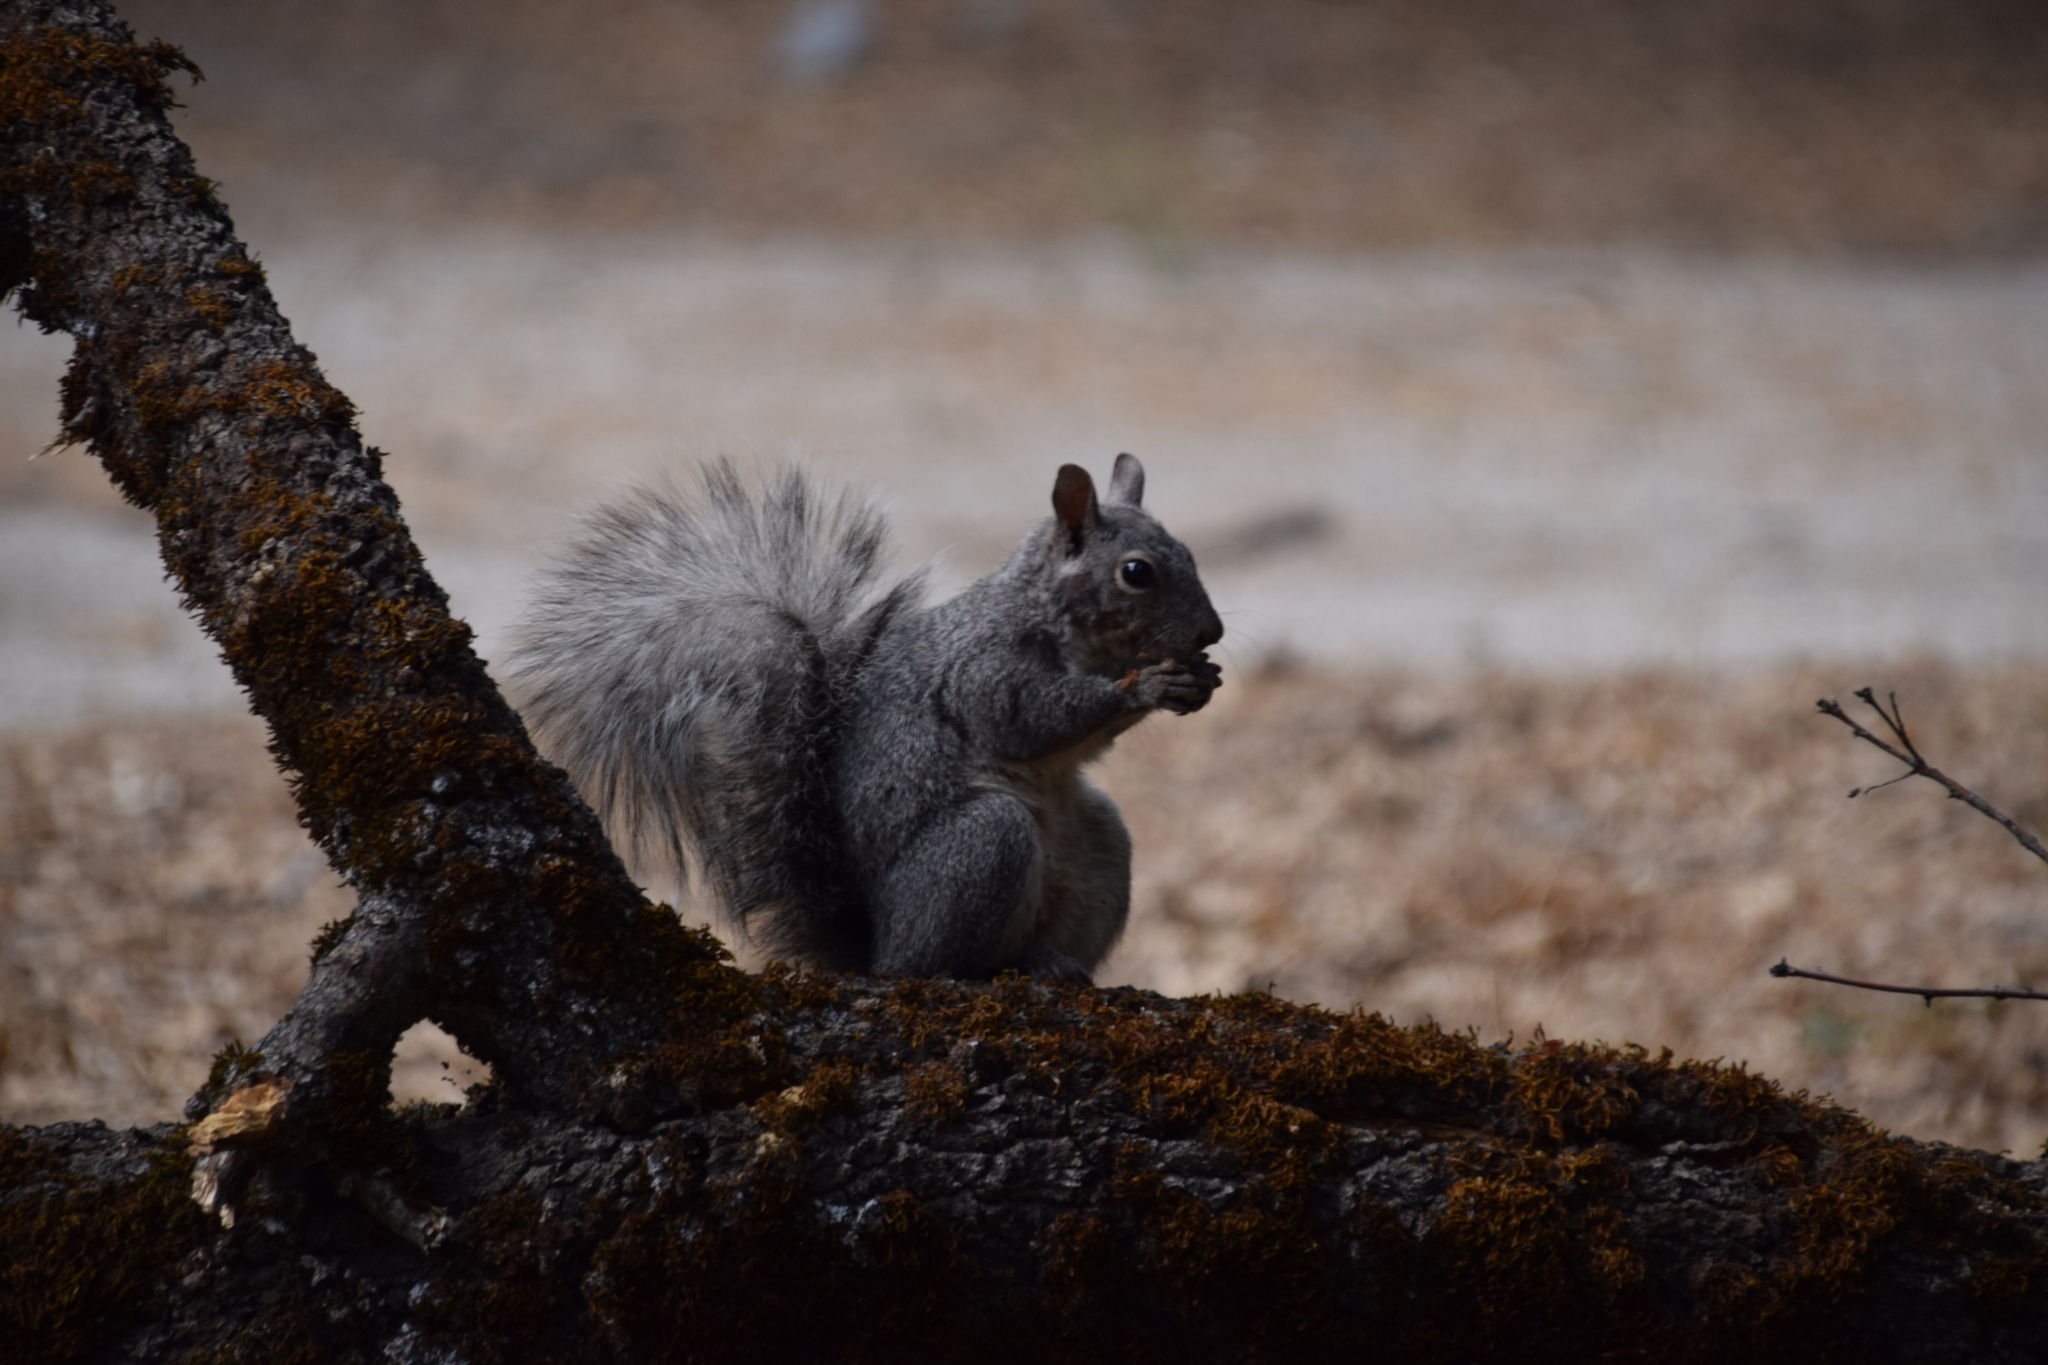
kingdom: Animalia
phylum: Chordata
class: Mammalia
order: Rodentia
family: Sciuridae
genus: Sciurus
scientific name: Sciurus griseus
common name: Western gray squirrel
